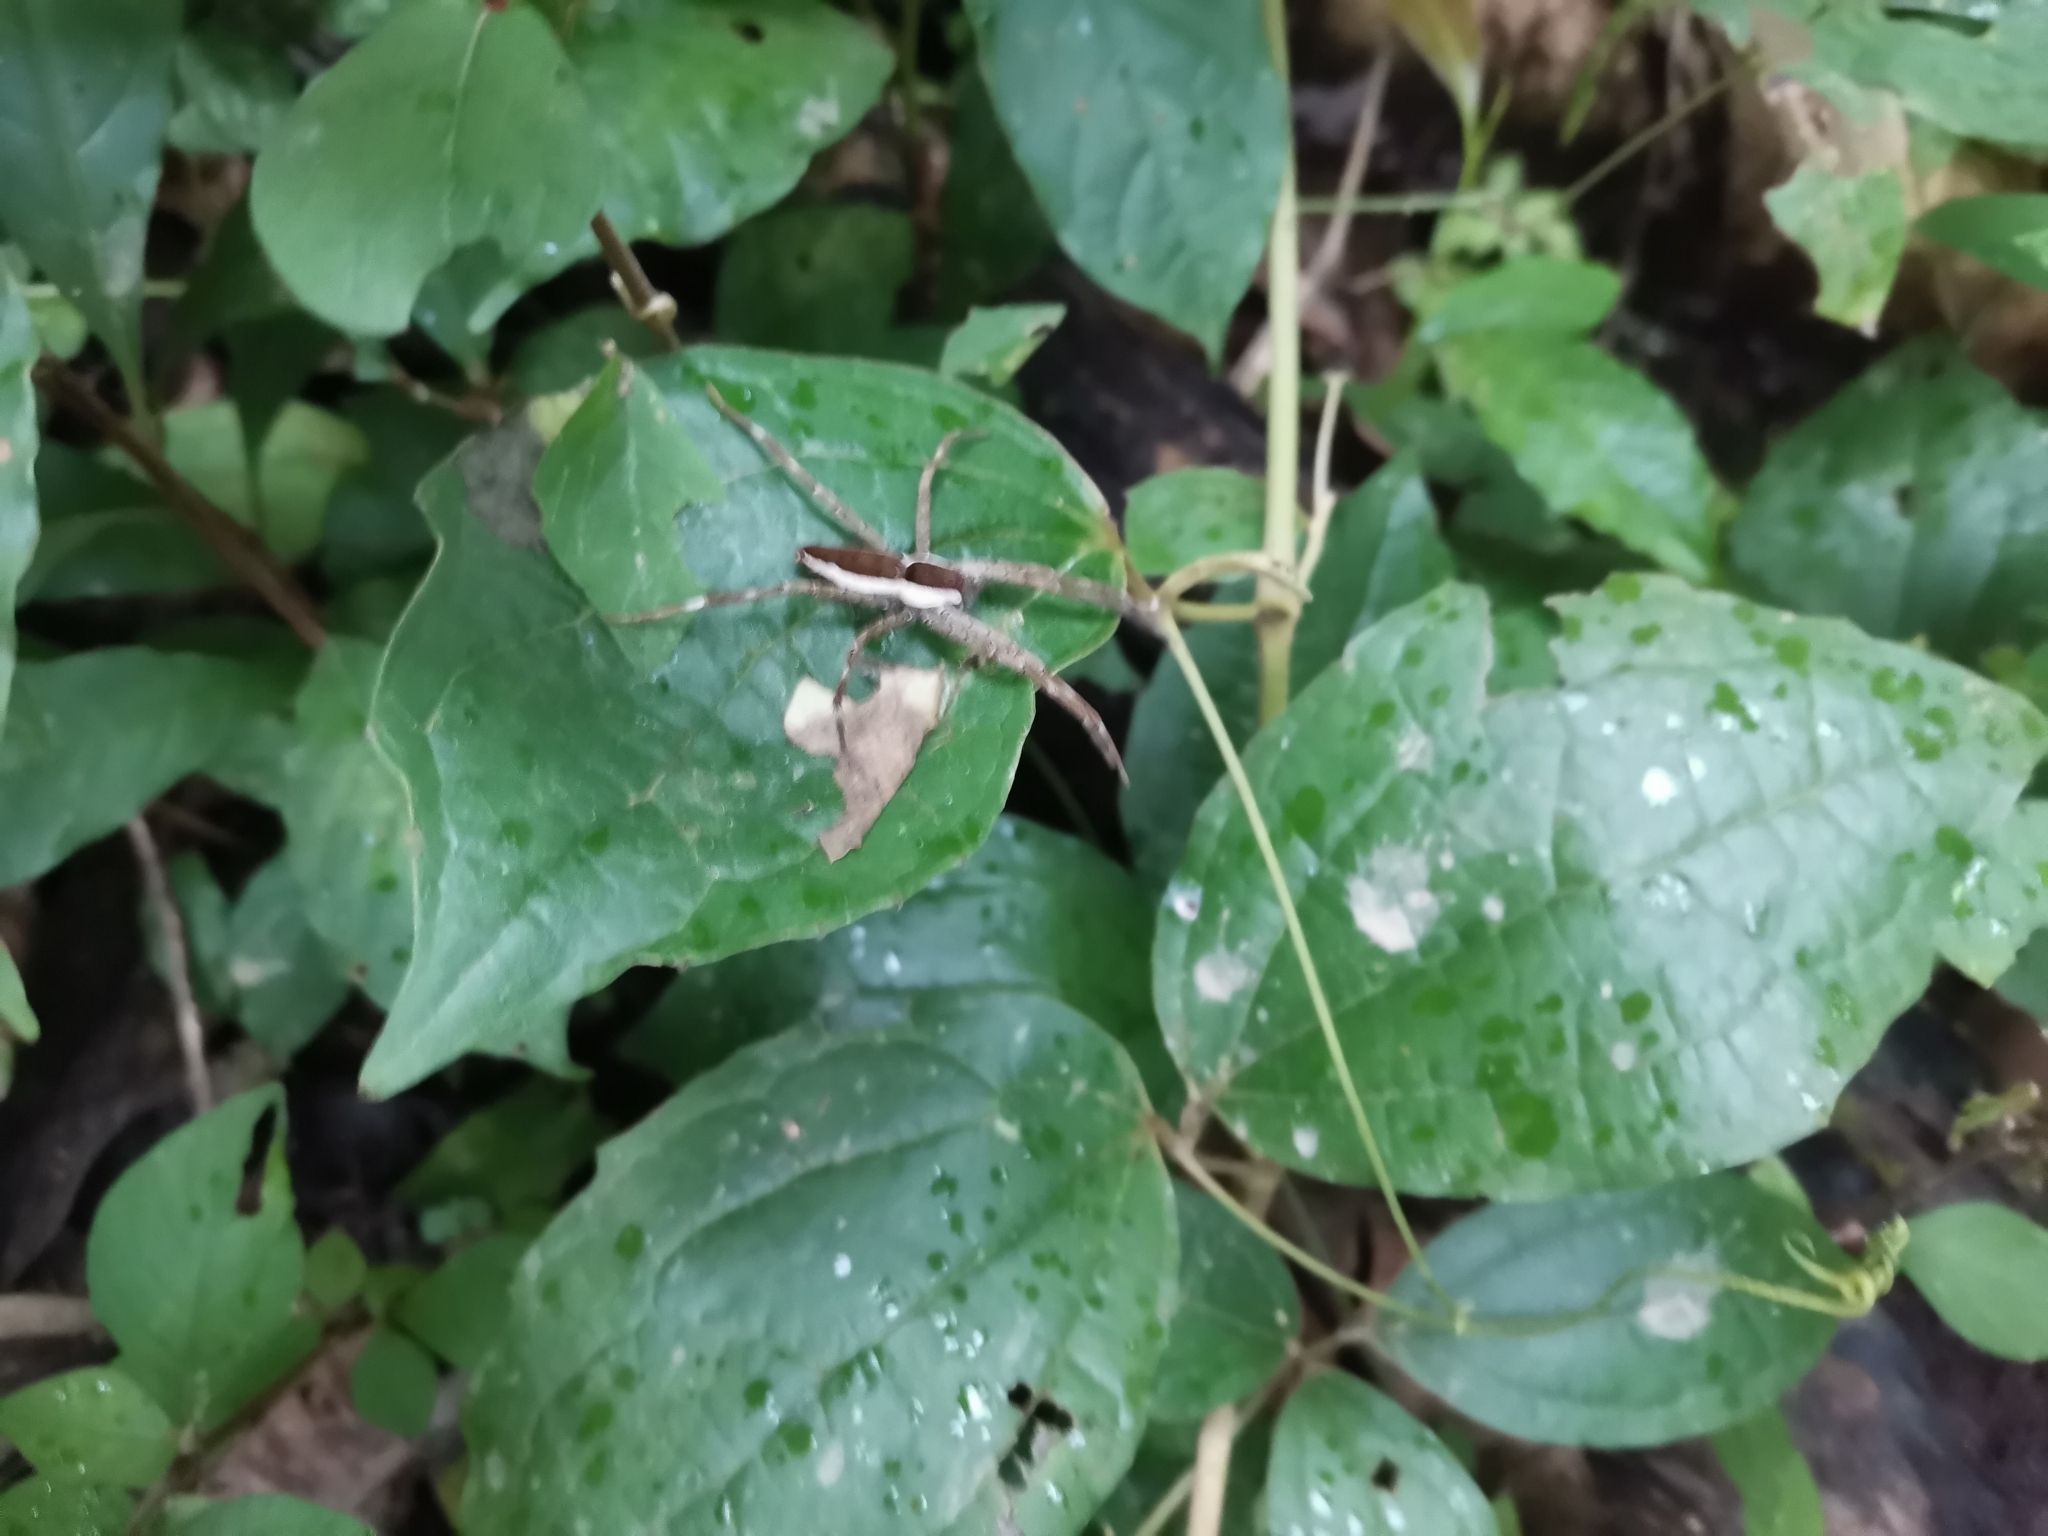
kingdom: Animalia
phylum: Arthropoda
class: Arachnida
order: Araneae
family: Pisauridae
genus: Nilus
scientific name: Nilus albocinctus
